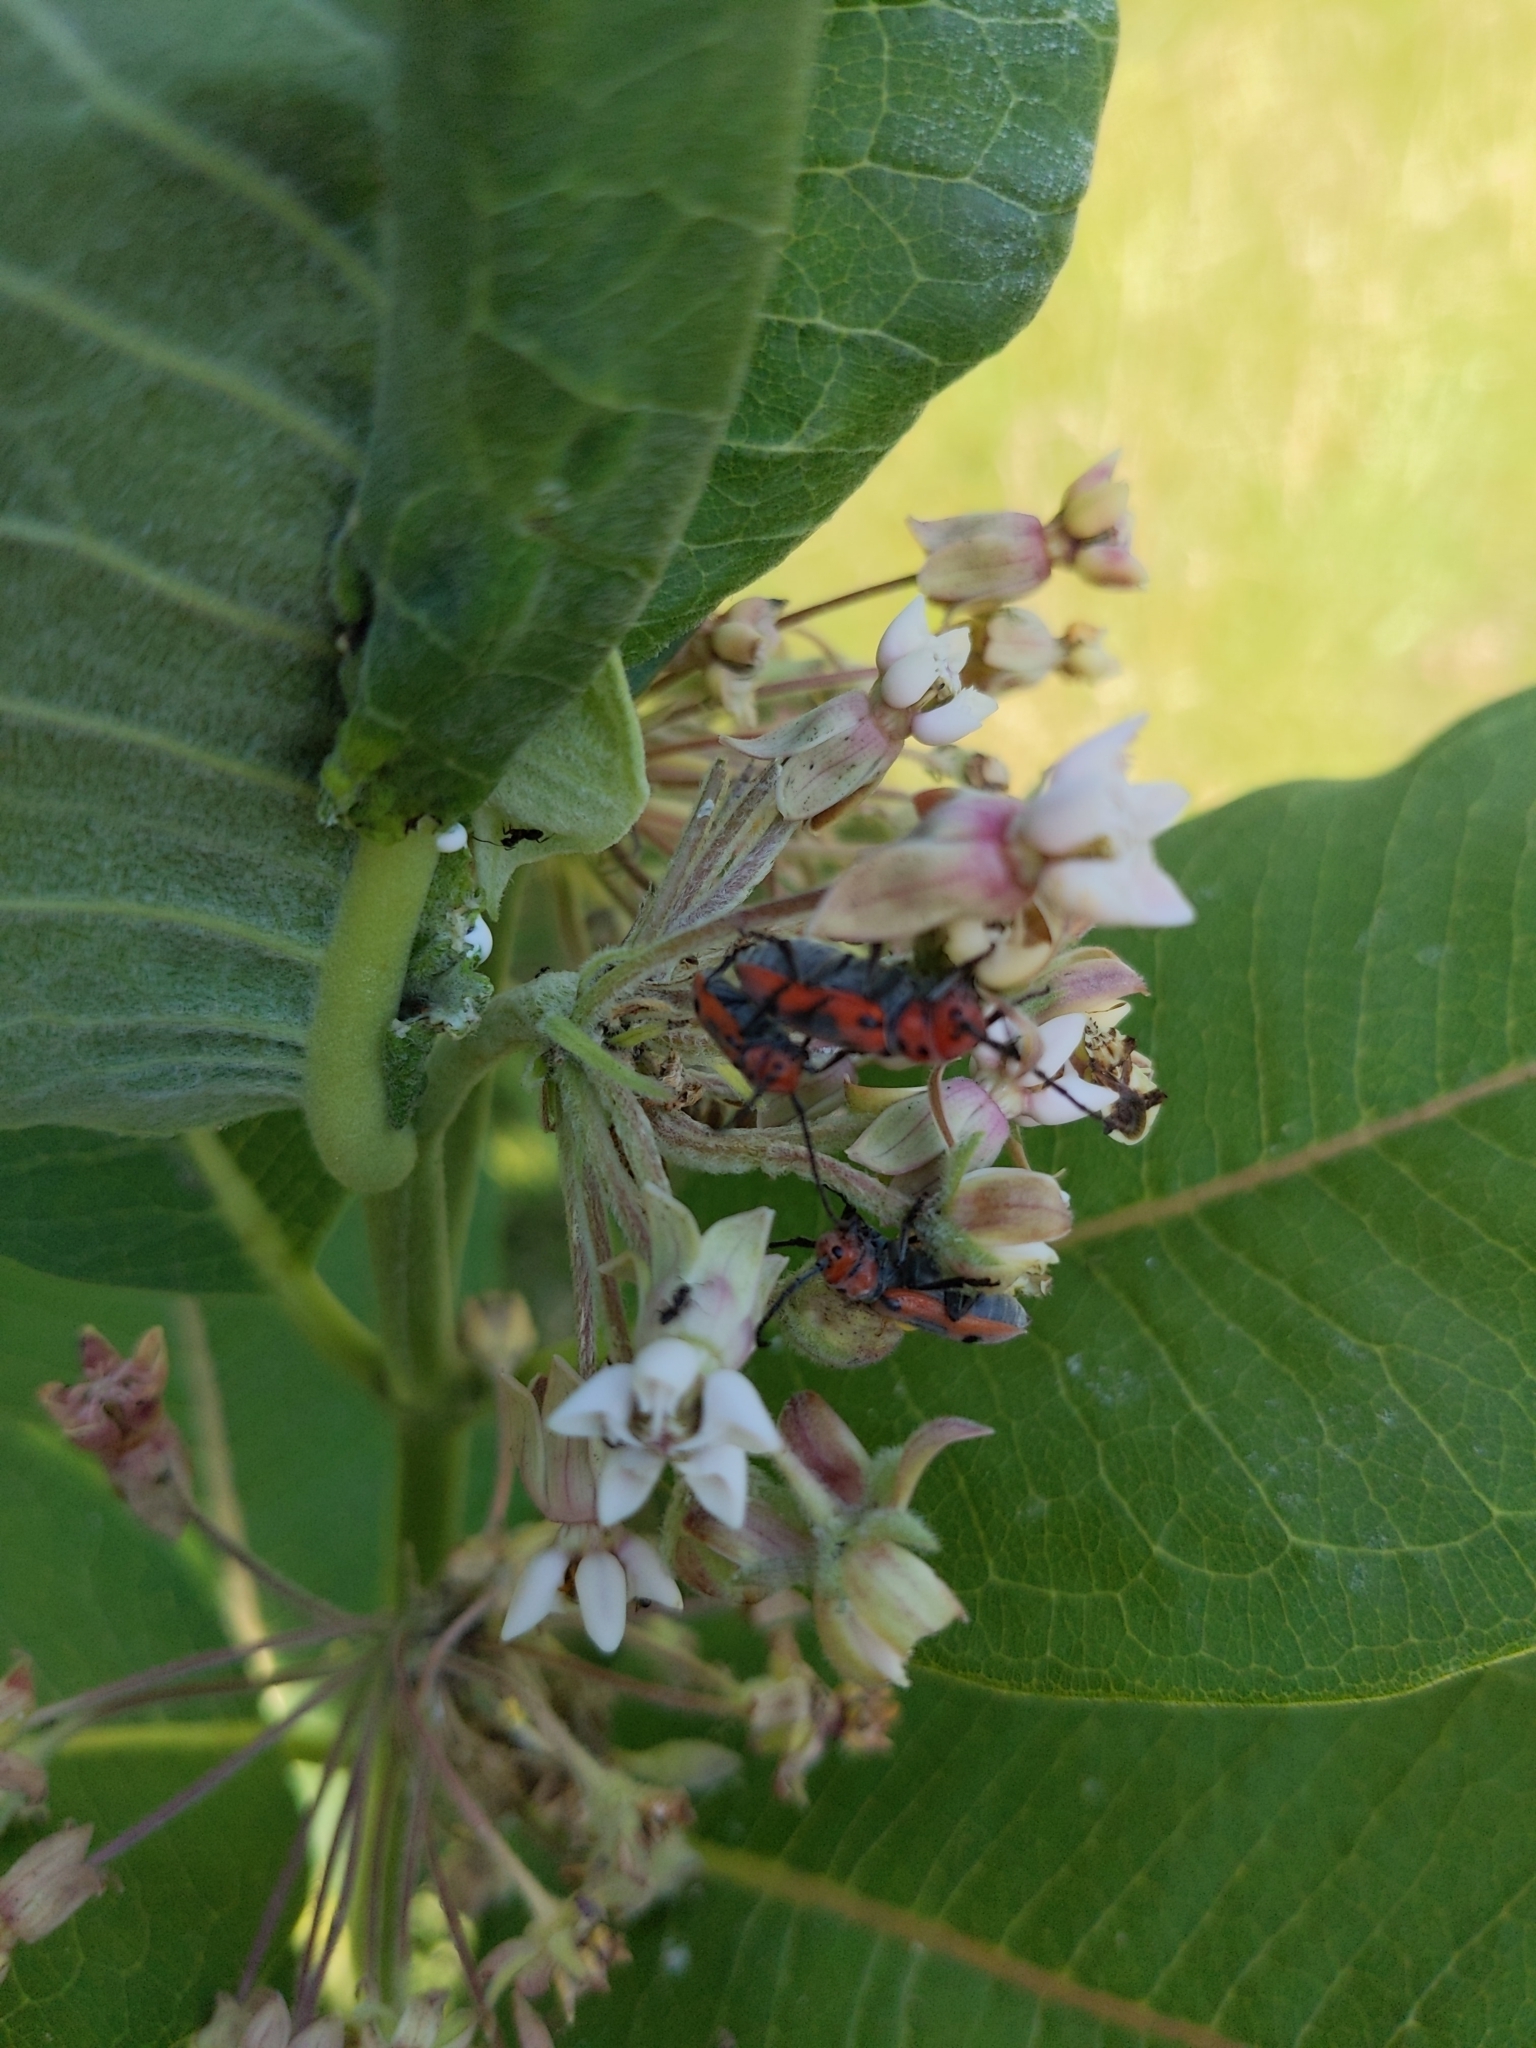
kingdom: Animalia
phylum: Arthropoda
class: Insecta
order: Coleoptera
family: Cerambycidae
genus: Tetraopes
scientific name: Tetraopes tetrophthalmus
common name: Red milkweed beetle
